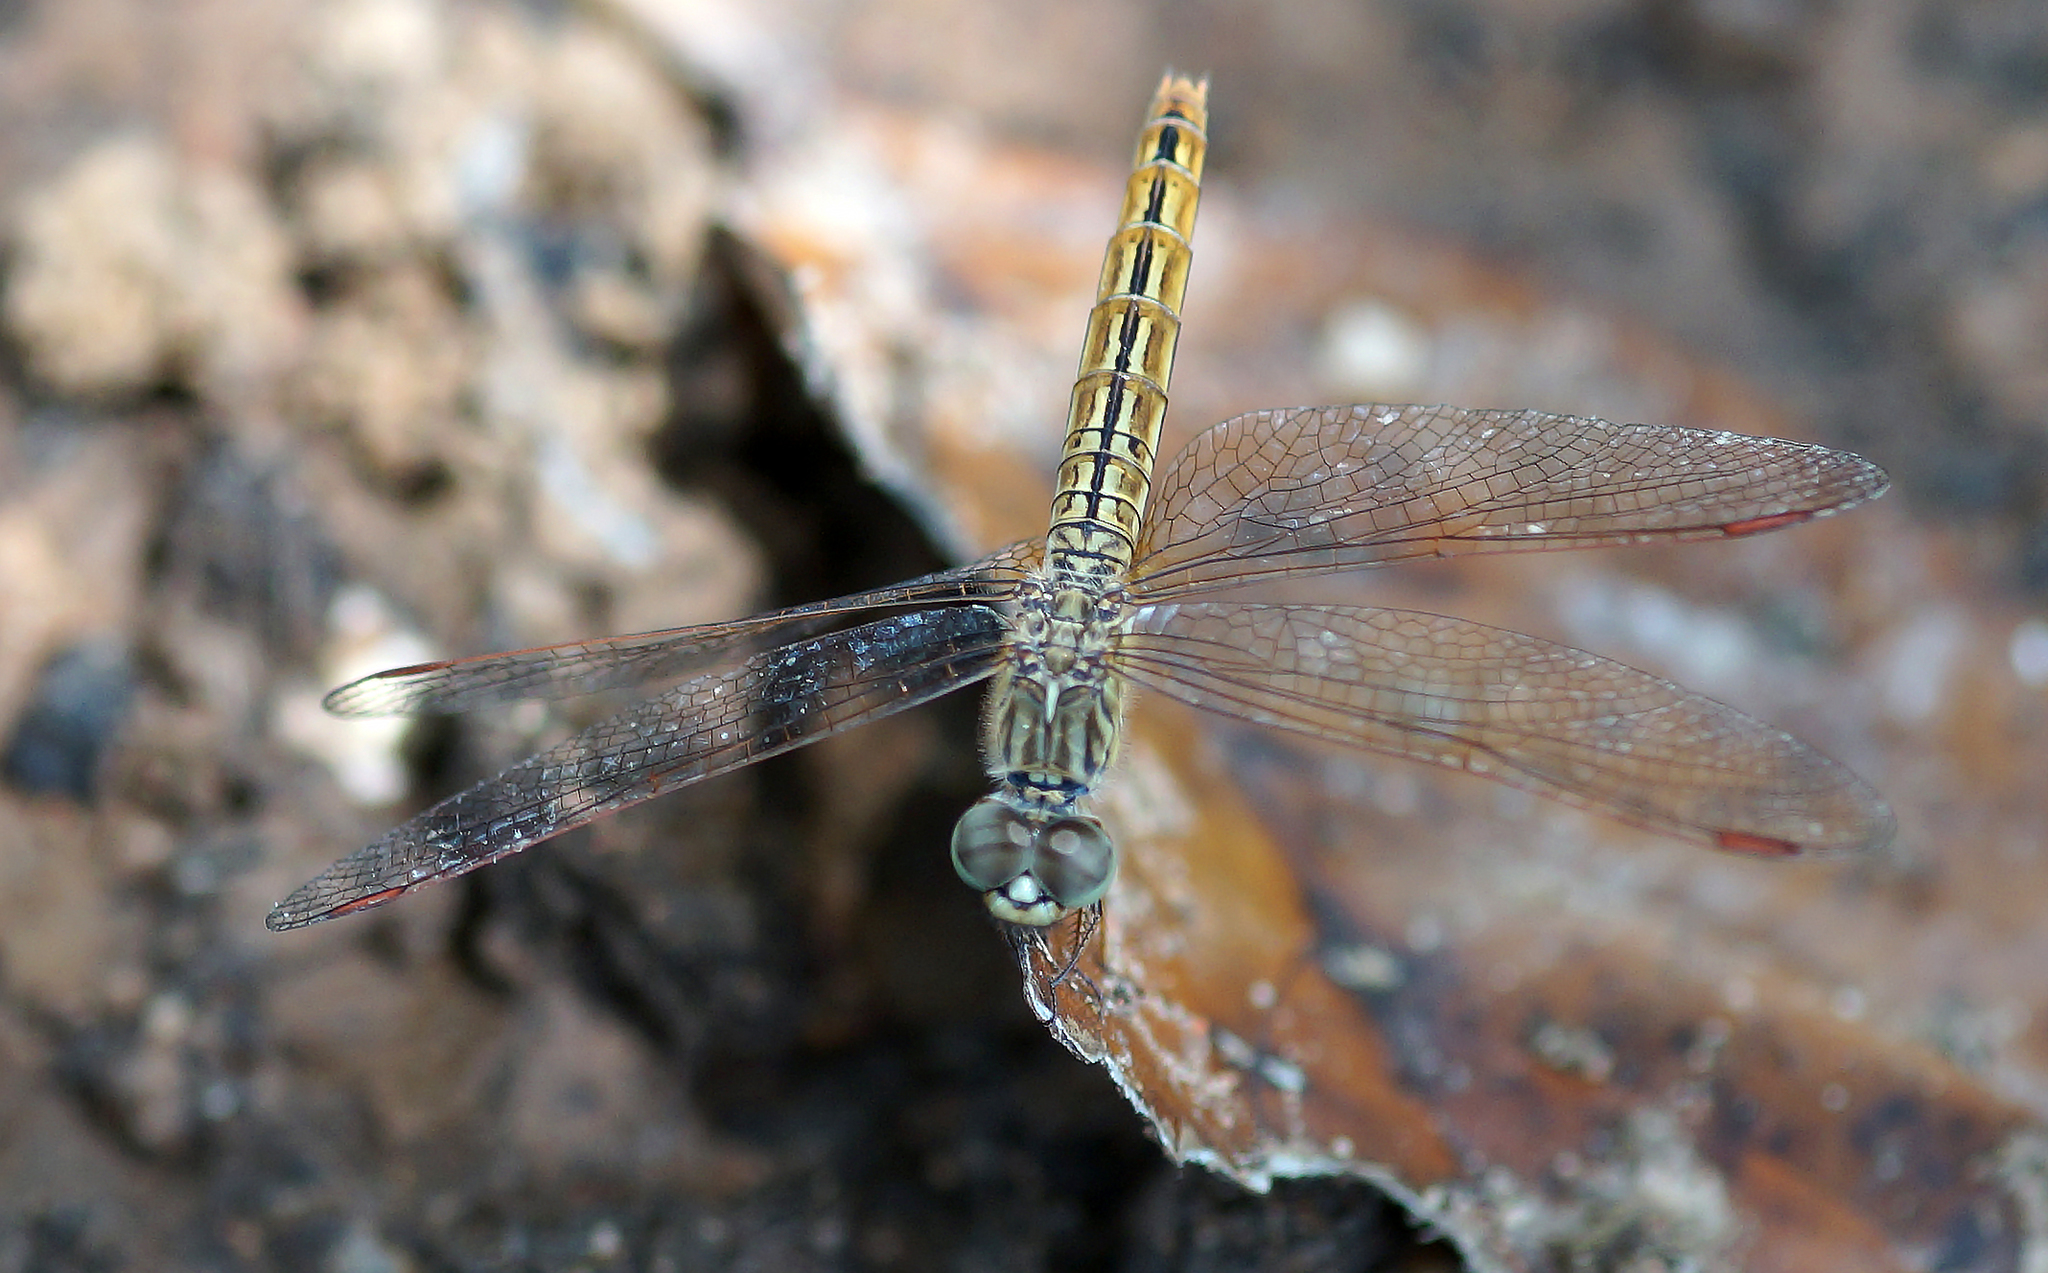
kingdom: Animalia
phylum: Arthropoda
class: Insecta
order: Odonata
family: Libellulidae
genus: Brachythemis
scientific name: Brachythemis contaminata
